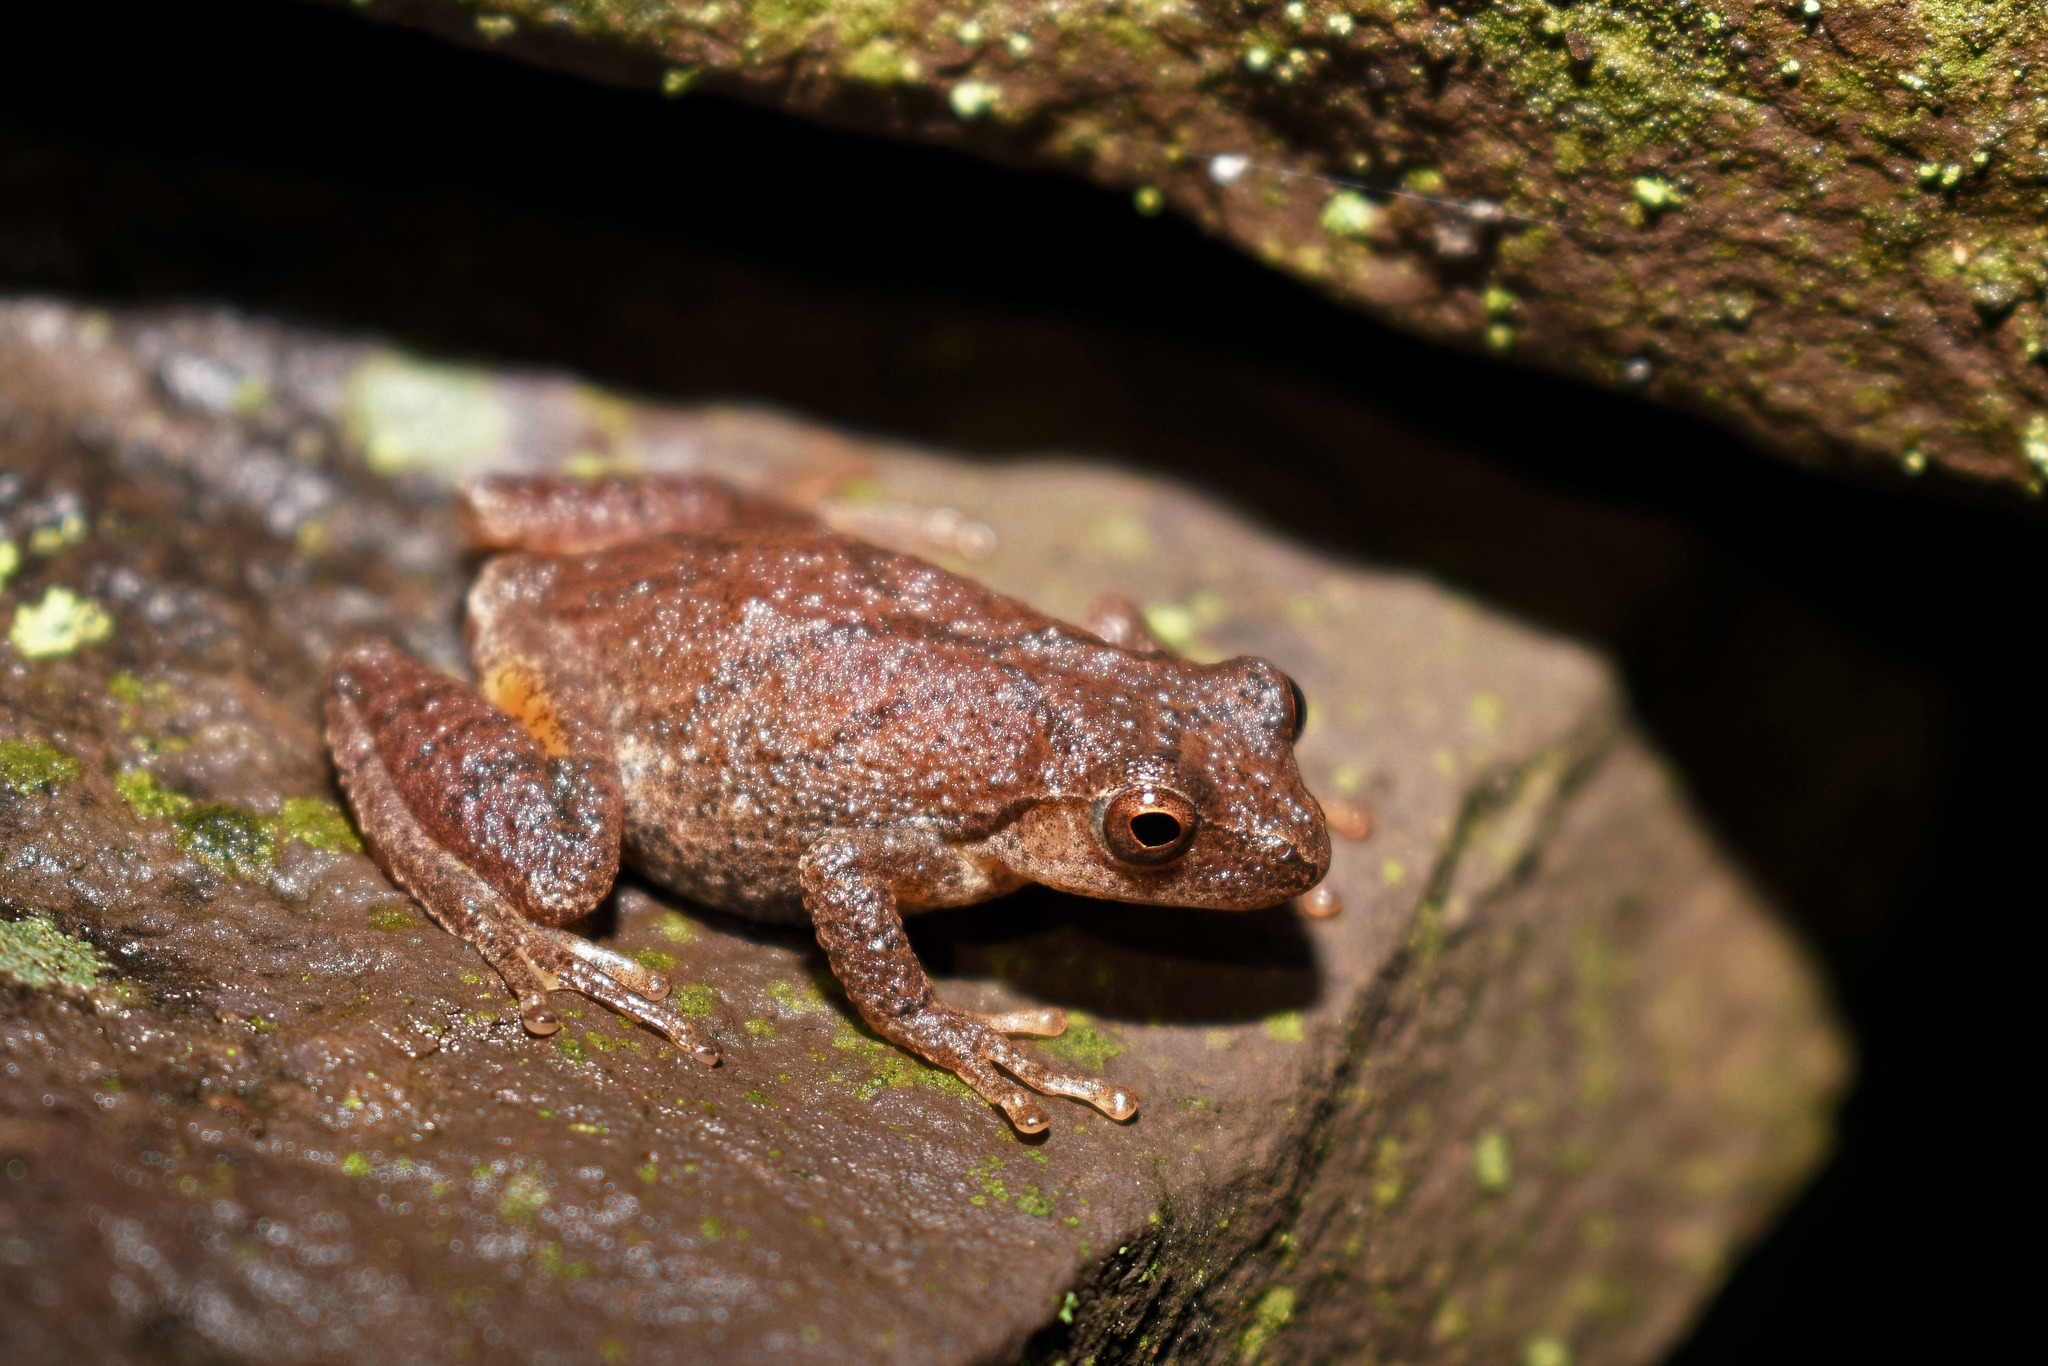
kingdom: Animalia
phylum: Chordata
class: Amphibia
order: Anura
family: Hylidae
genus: Pseudacris
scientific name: Pseudacris crucifer
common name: Spring peeper
